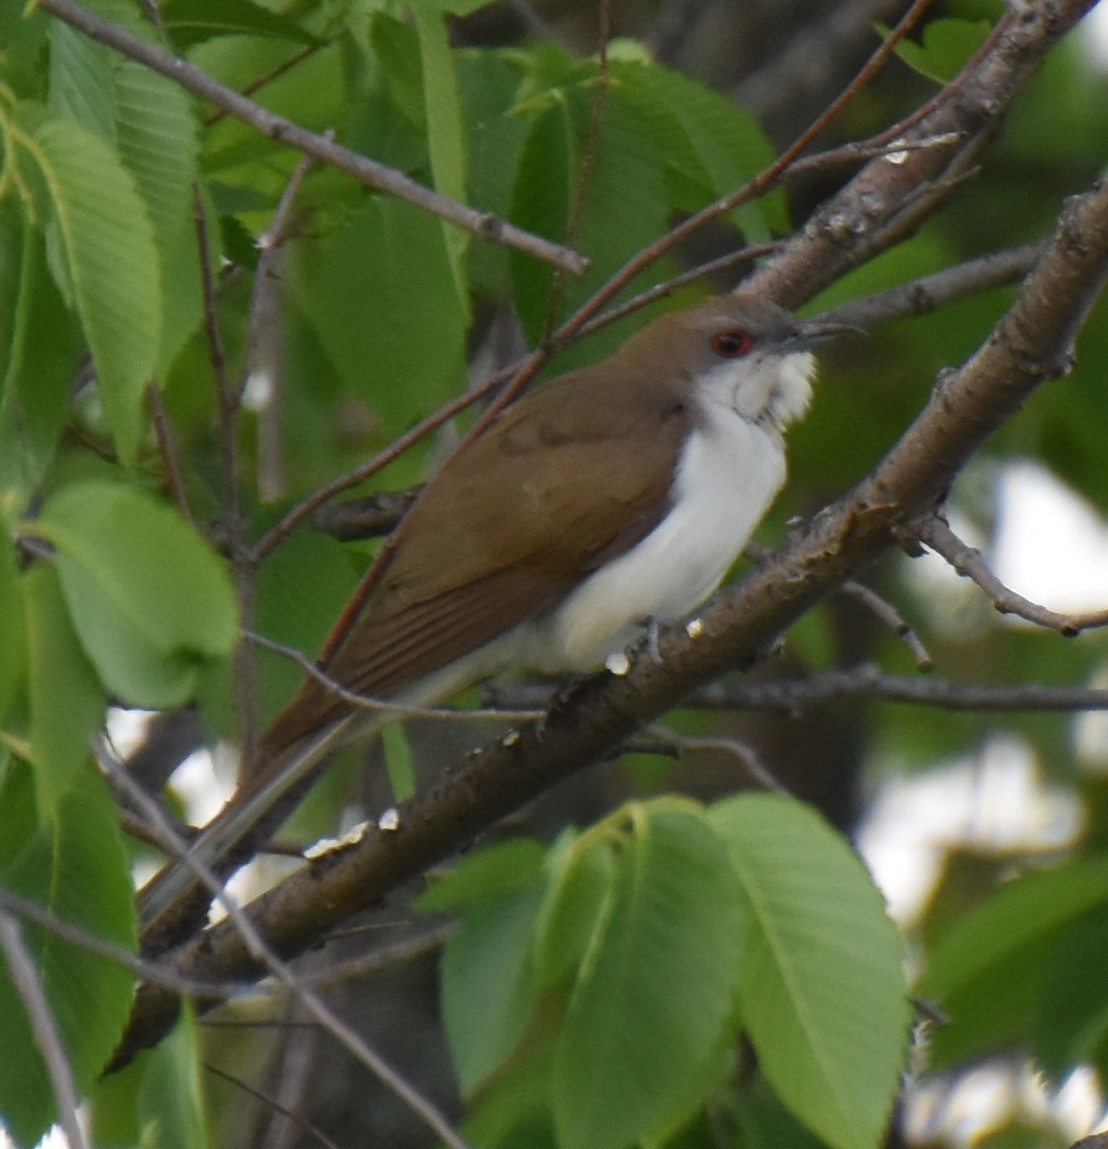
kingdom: Animalia
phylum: Chordata
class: Aves
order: Cuculiformes
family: Cuculidae
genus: Coccyzus
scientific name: Coccyzus erythropthalmus
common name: Black-billed cuckoo
